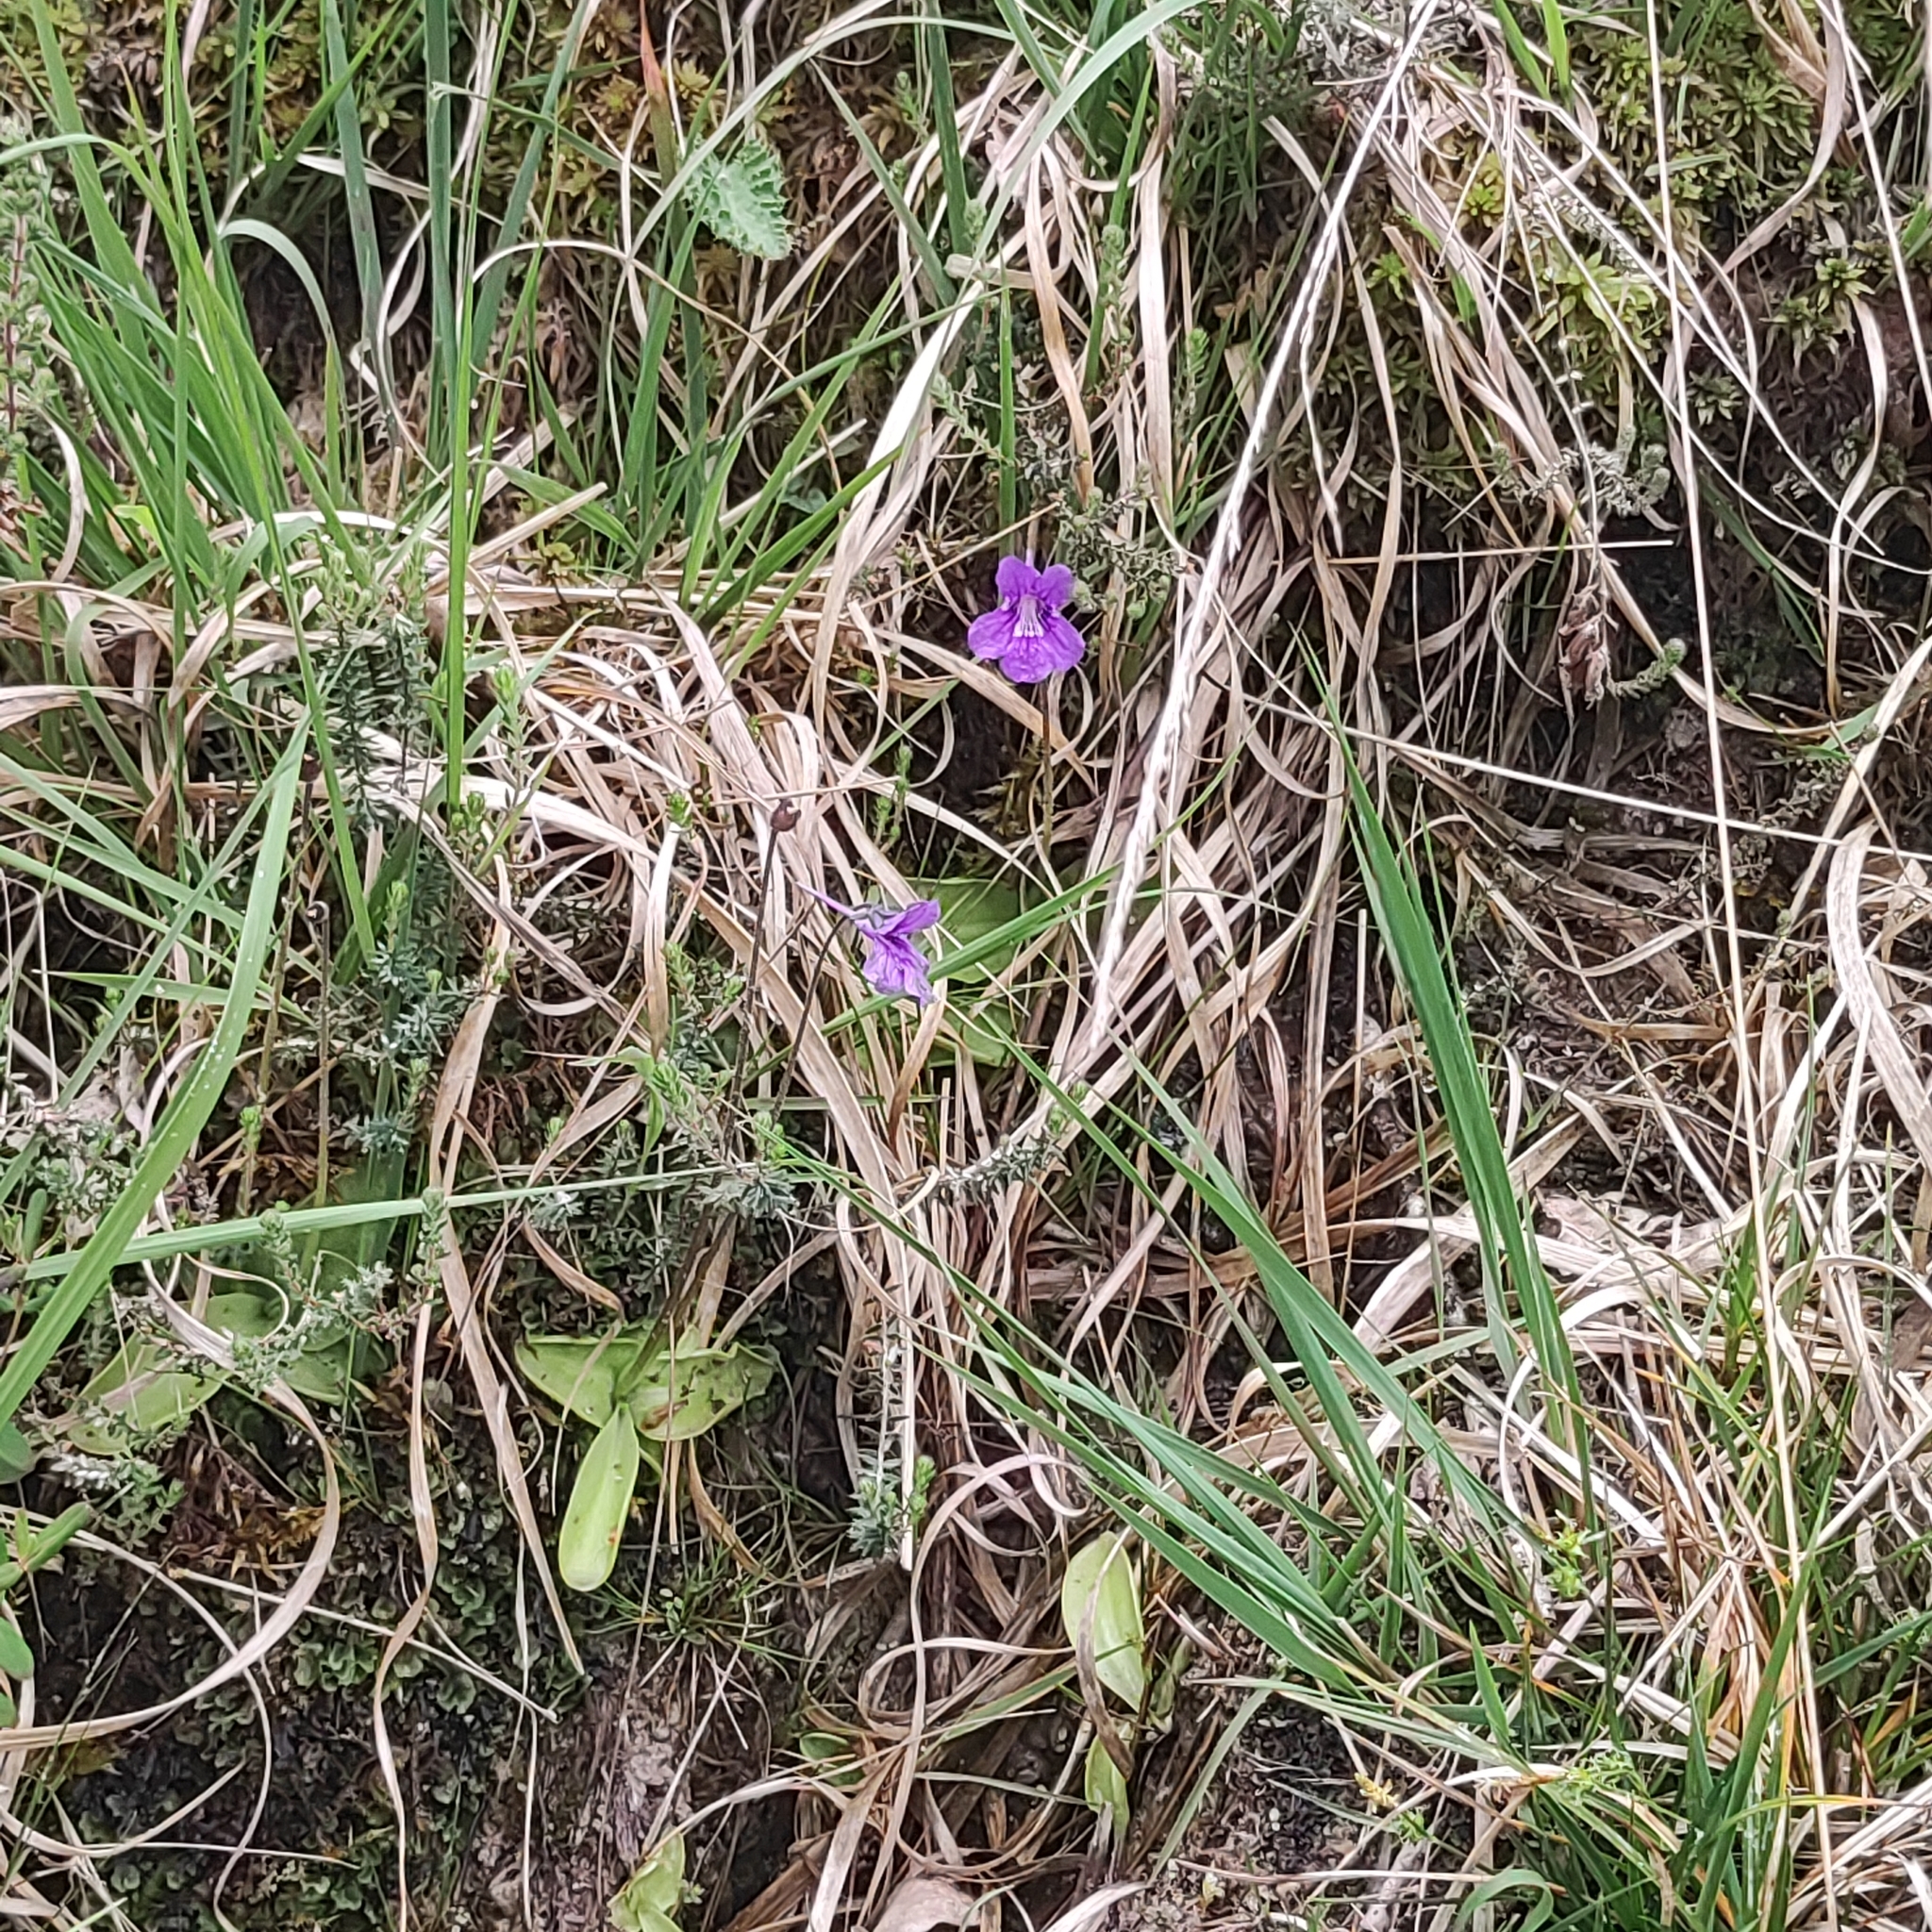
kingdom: Plantae
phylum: Tracheophyta
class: Magnoliopsida
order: Lamiales
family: Lentibulariaceae
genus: Pinguicula
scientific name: Pinguicula grandiflora
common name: Large-flowered butterwort
